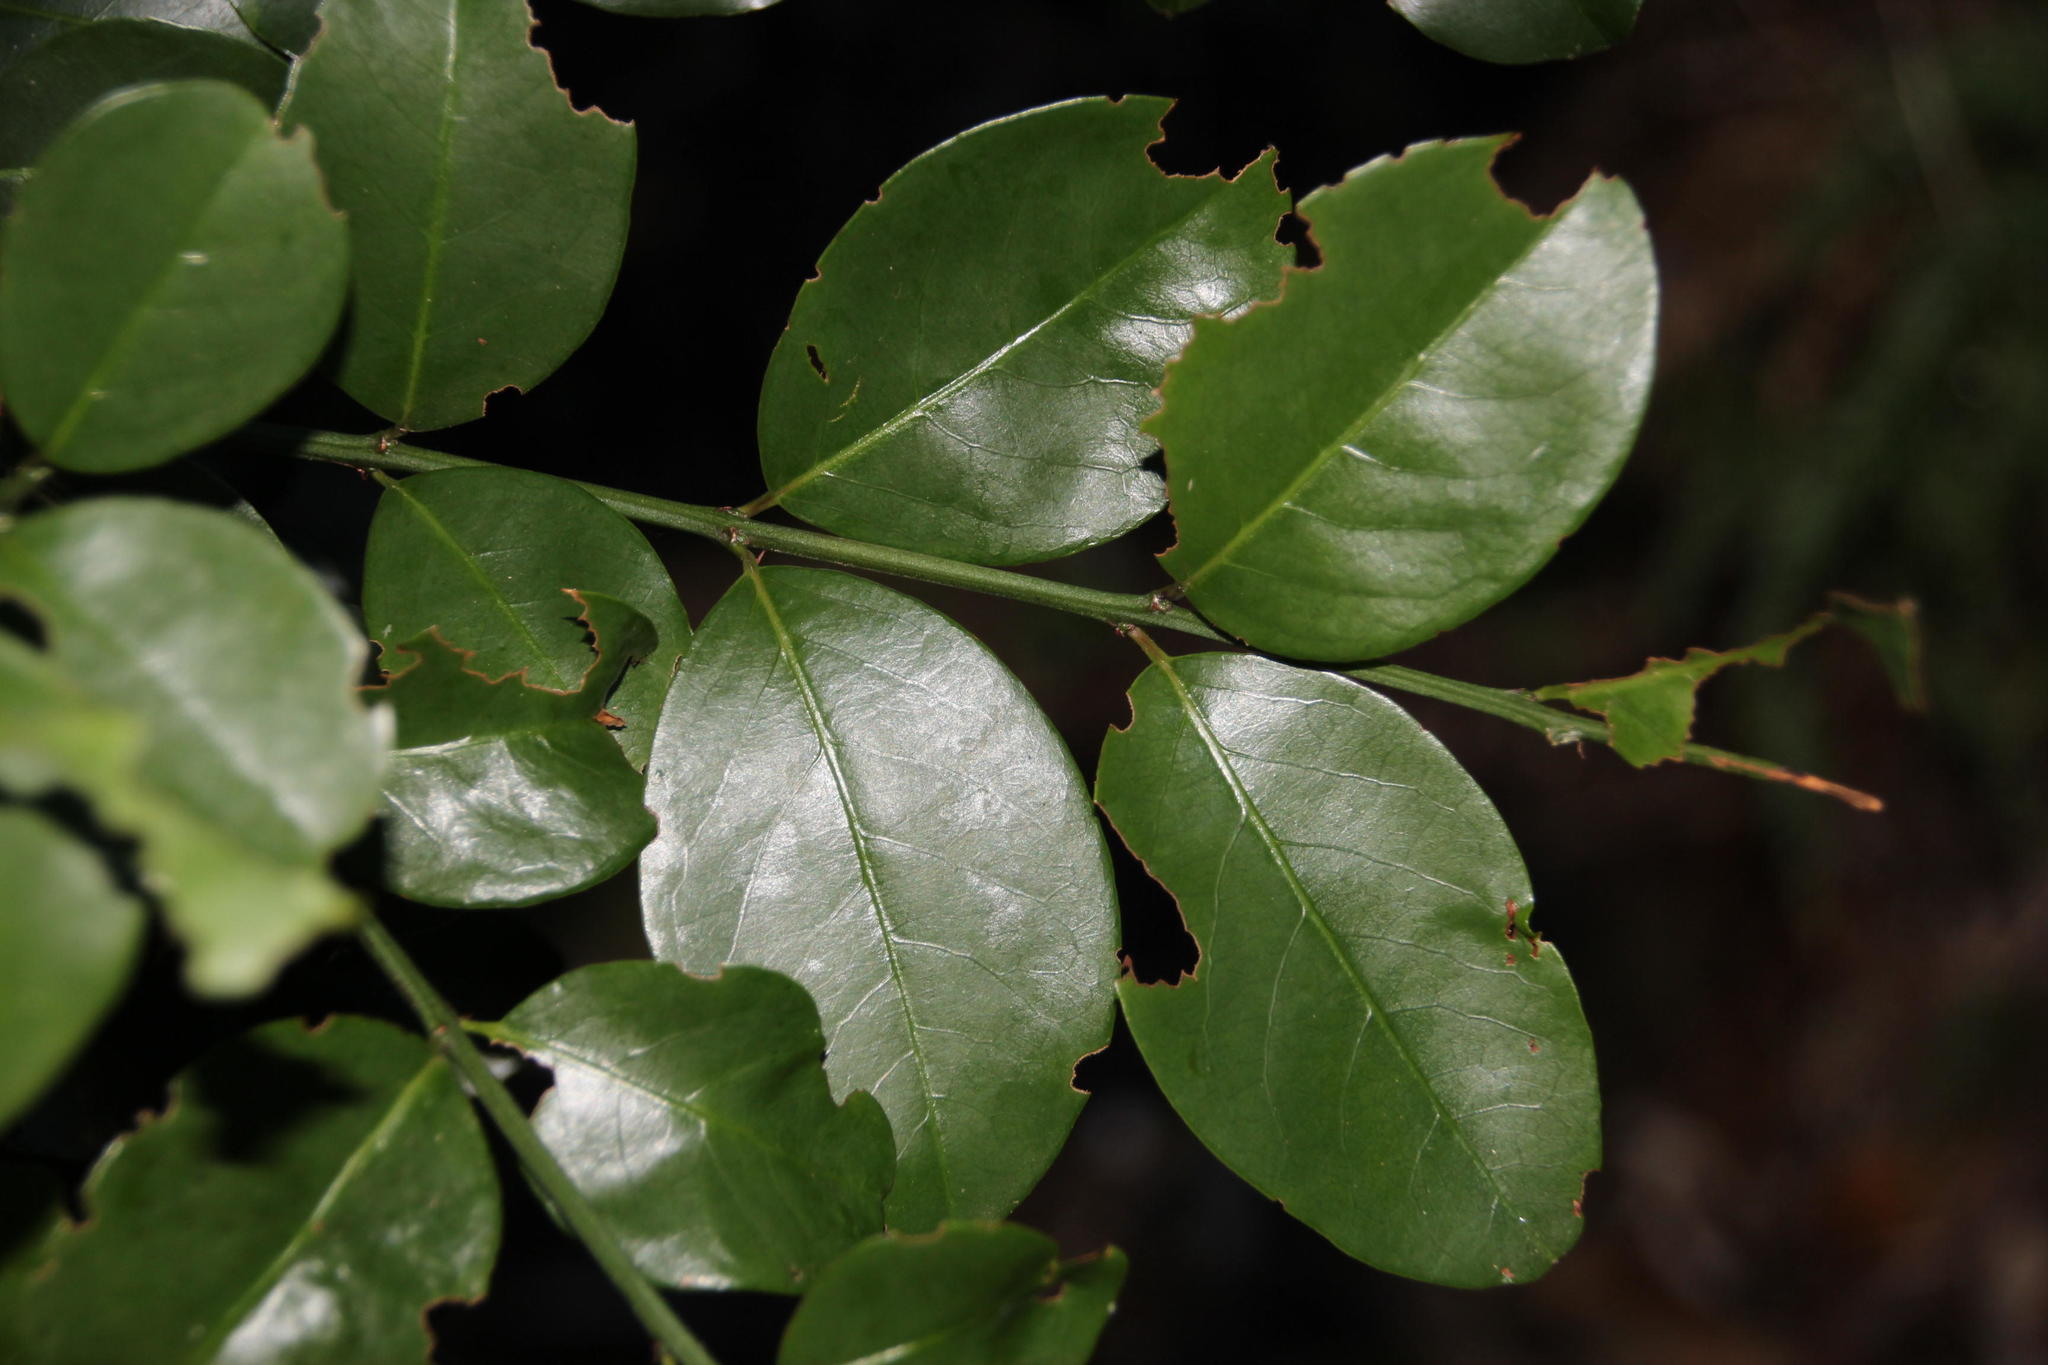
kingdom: Plantae
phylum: Tracheophyta
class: Magnoliopsida
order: Rosales
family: Rhamnaceae
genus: Scutia
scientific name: Scutia myrtina
